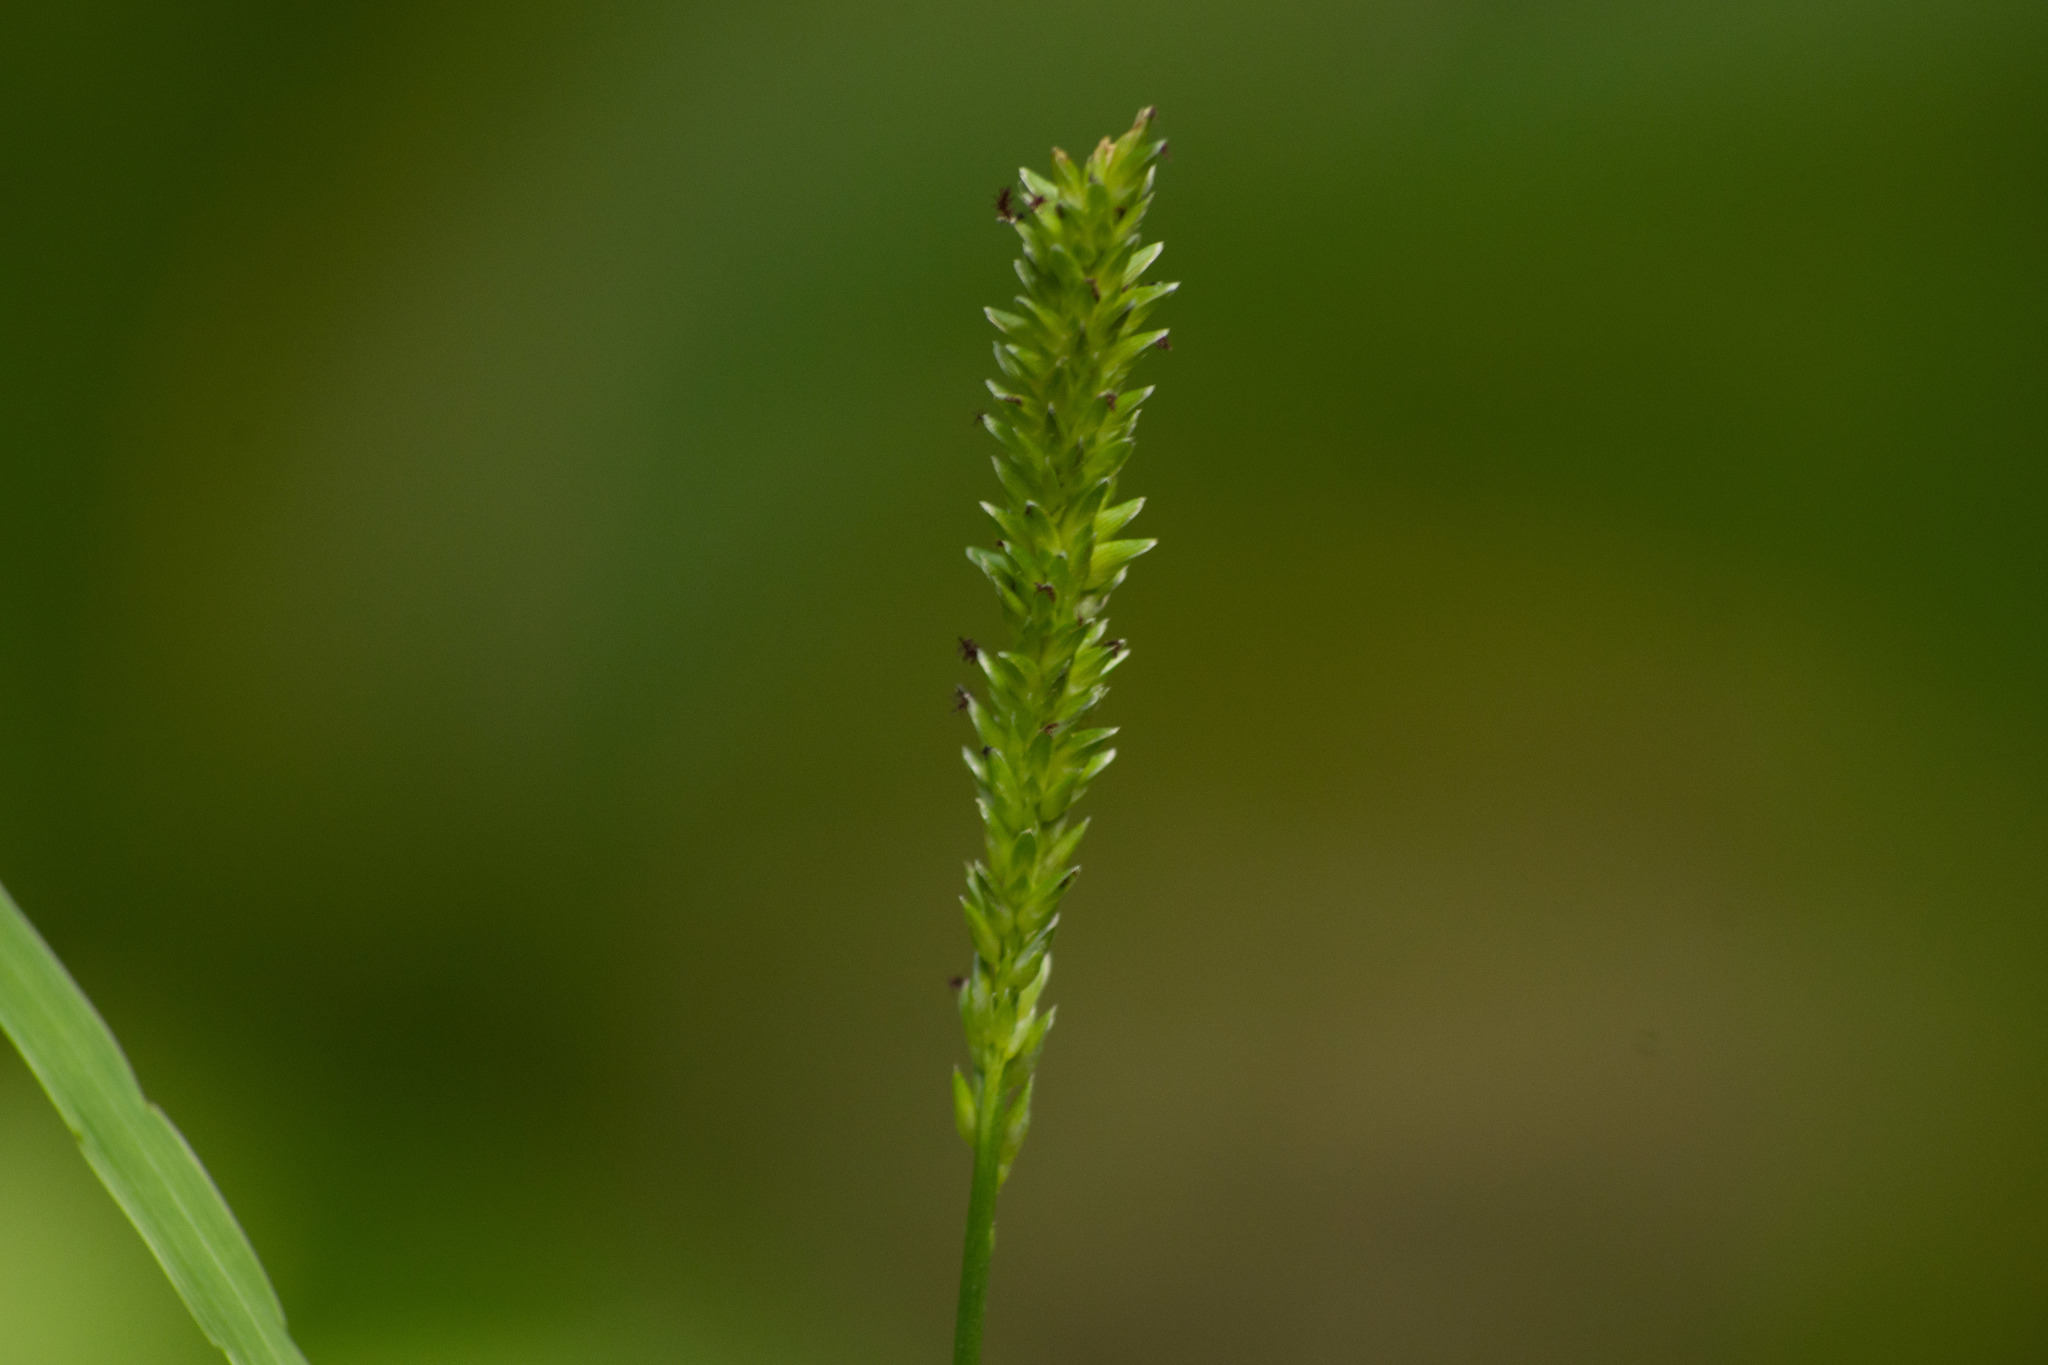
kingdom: Plantae
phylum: Tracheophyta
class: Liliopsida
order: Poales
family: Poaceae
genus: Sacciolepis
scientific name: Sacciolepis indica
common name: Glenwoodgrass
